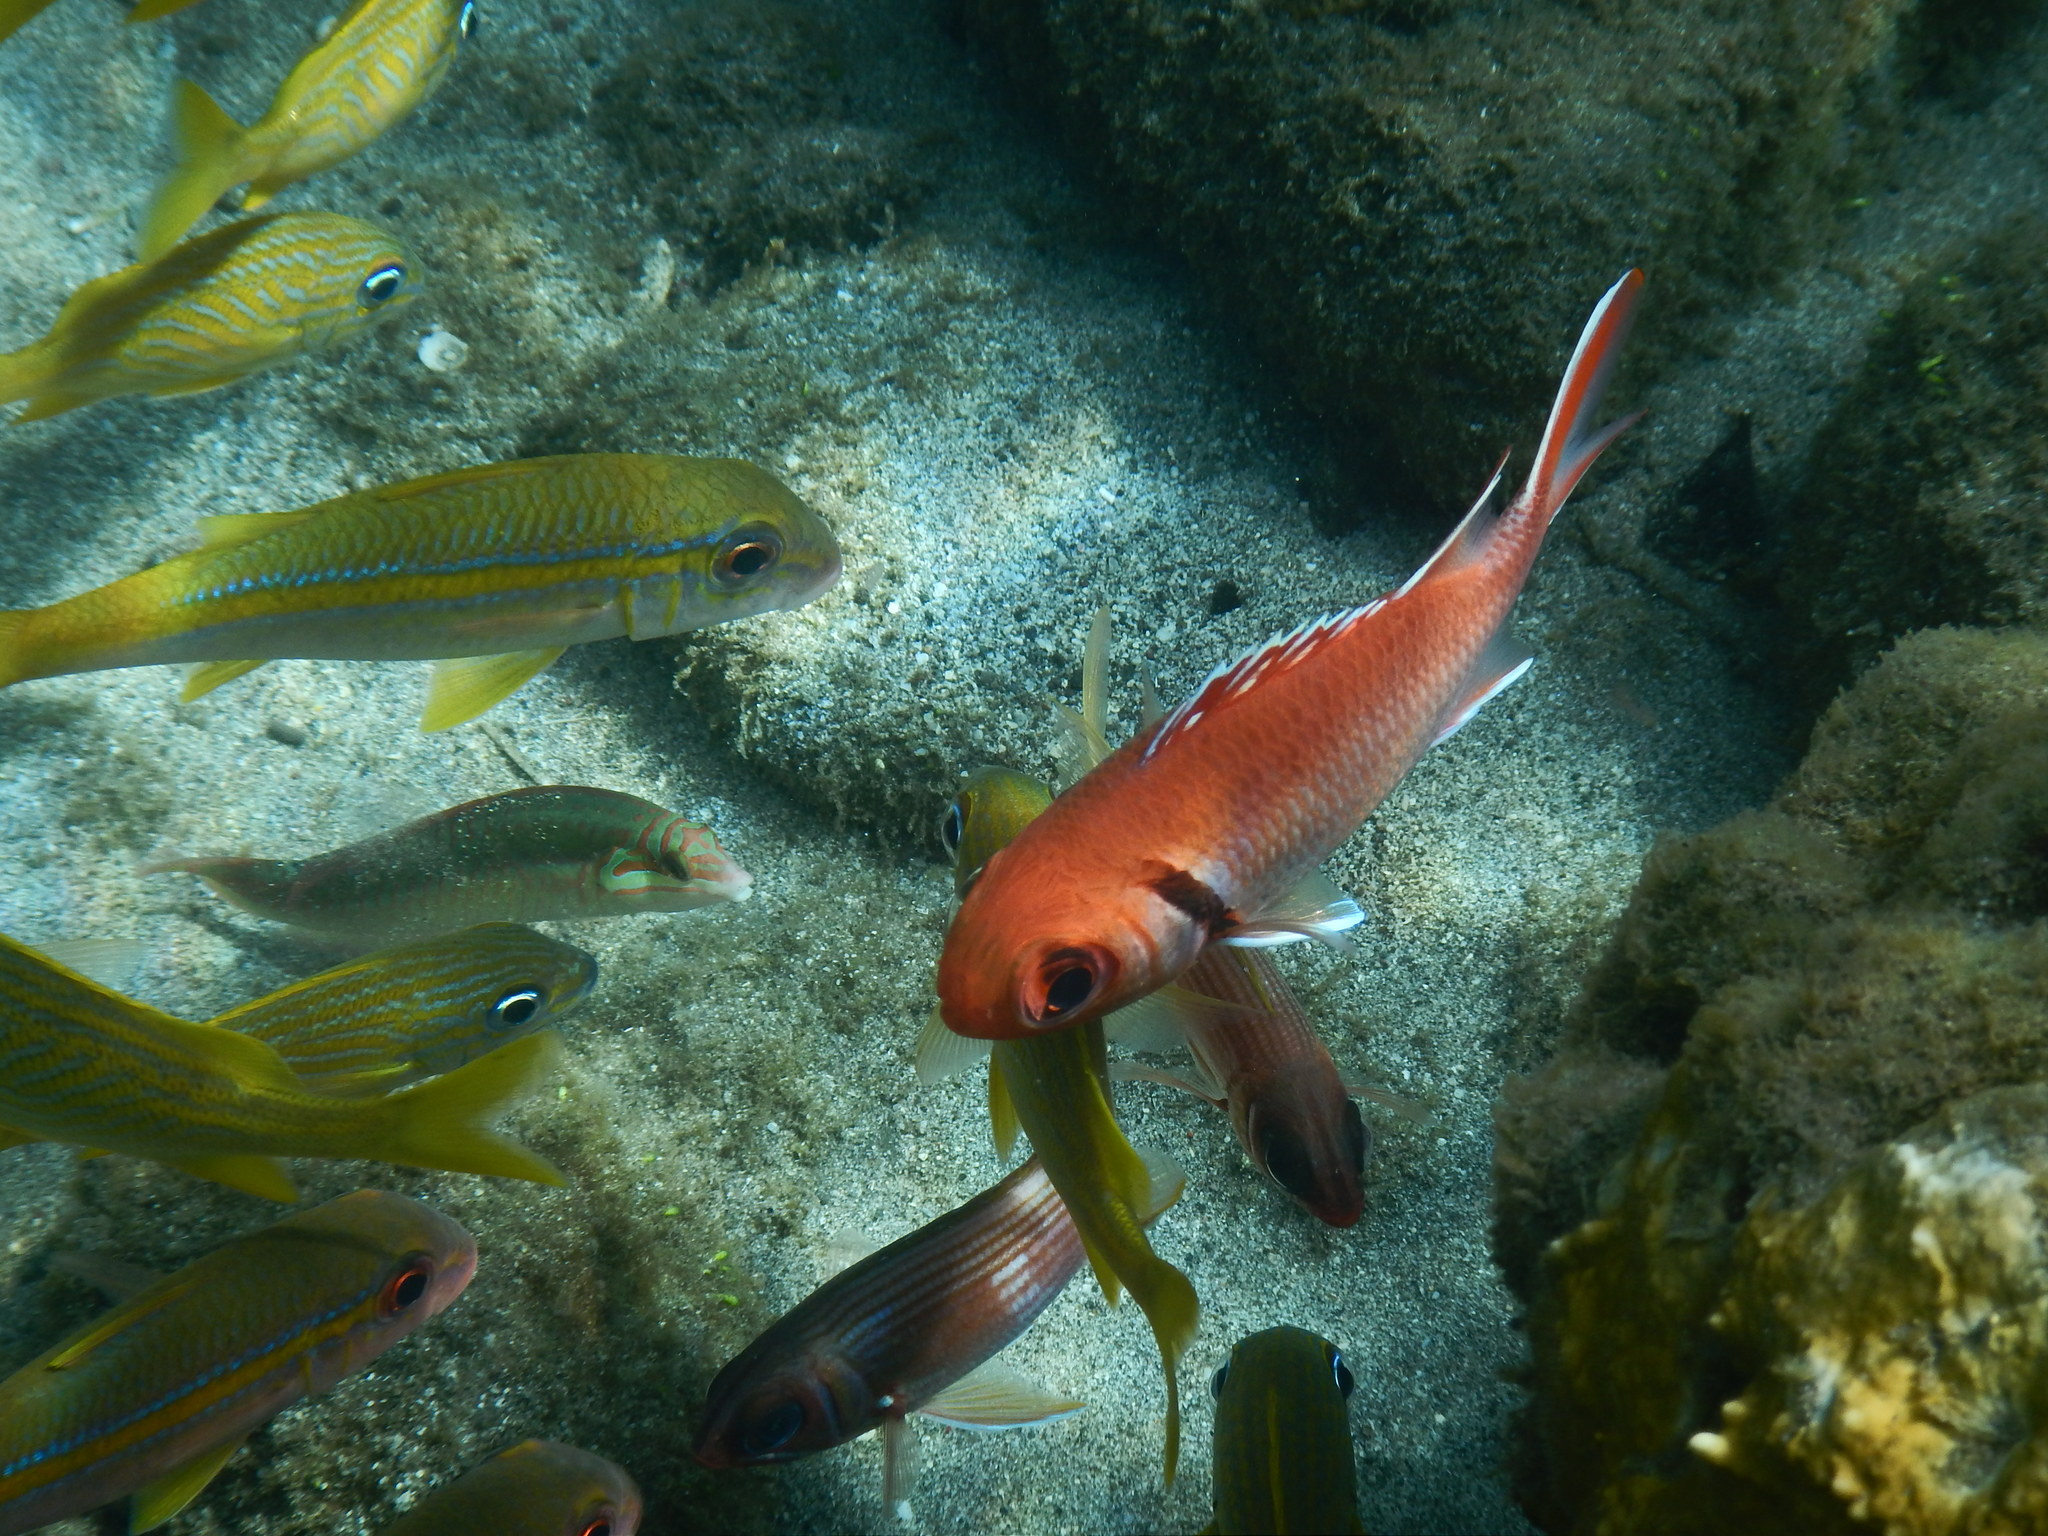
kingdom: Animalia
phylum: Chordata
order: Beryciformes
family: Holocentridae
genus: Myripristis
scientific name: Myripristis jacobus
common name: Blackbar soldierfish
